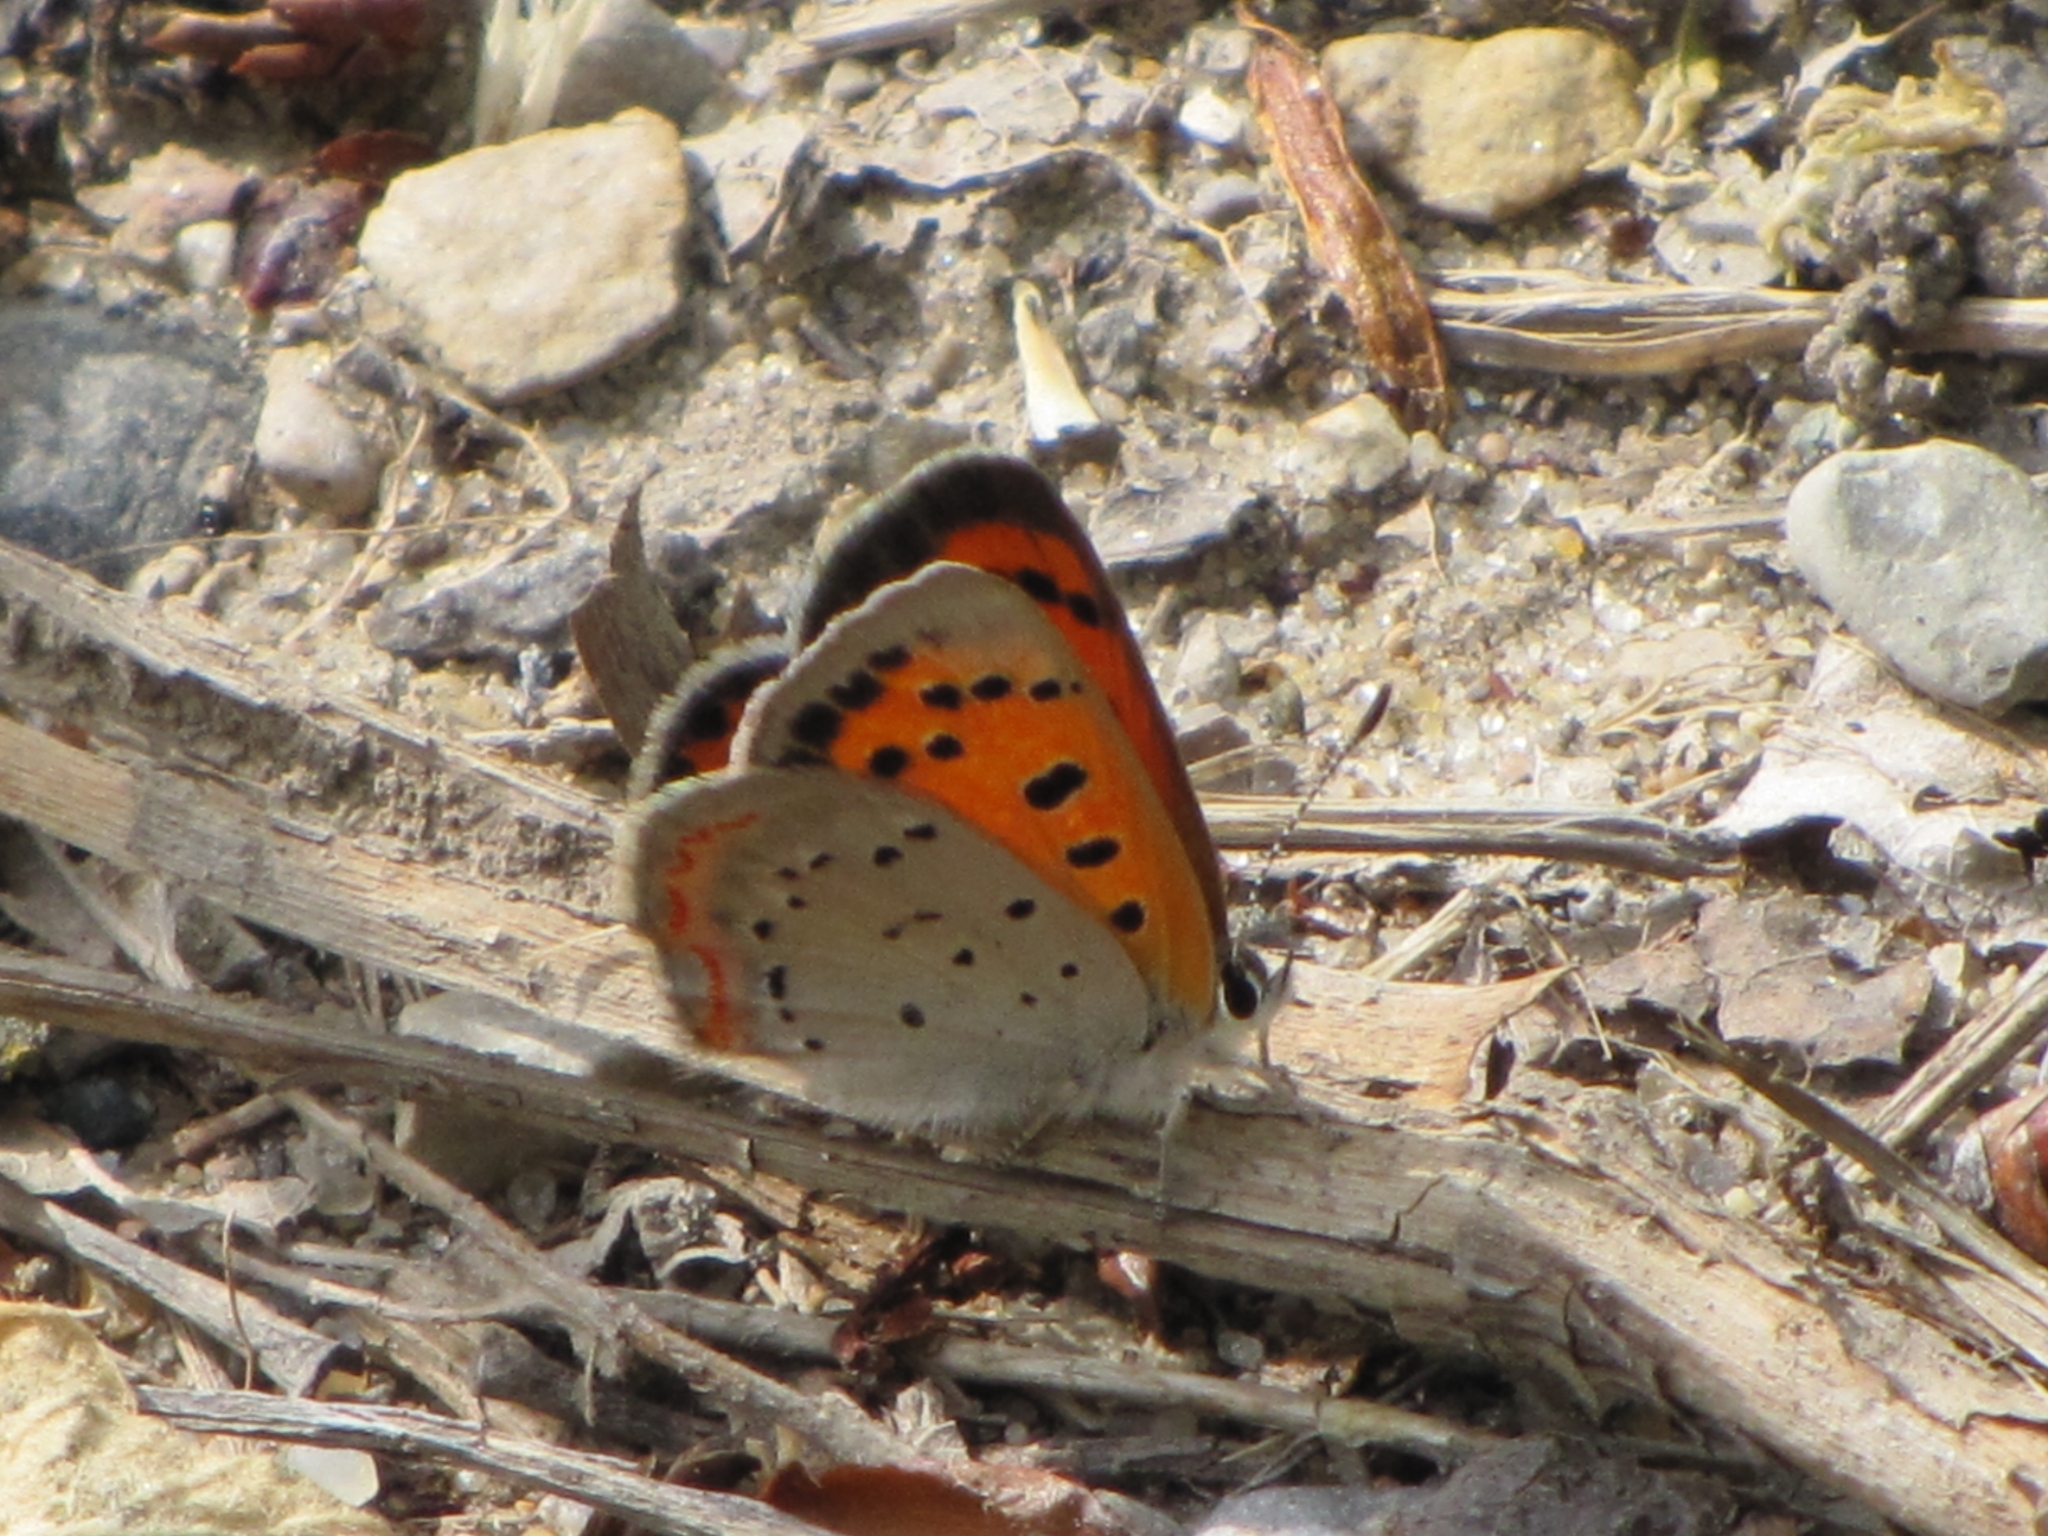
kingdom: Animalia
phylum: Arthropoda
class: Insecta
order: Lepidoptera
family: Lycaenidae
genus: Lycaena
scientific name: Lycaena hypophlaeas
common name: American copper
